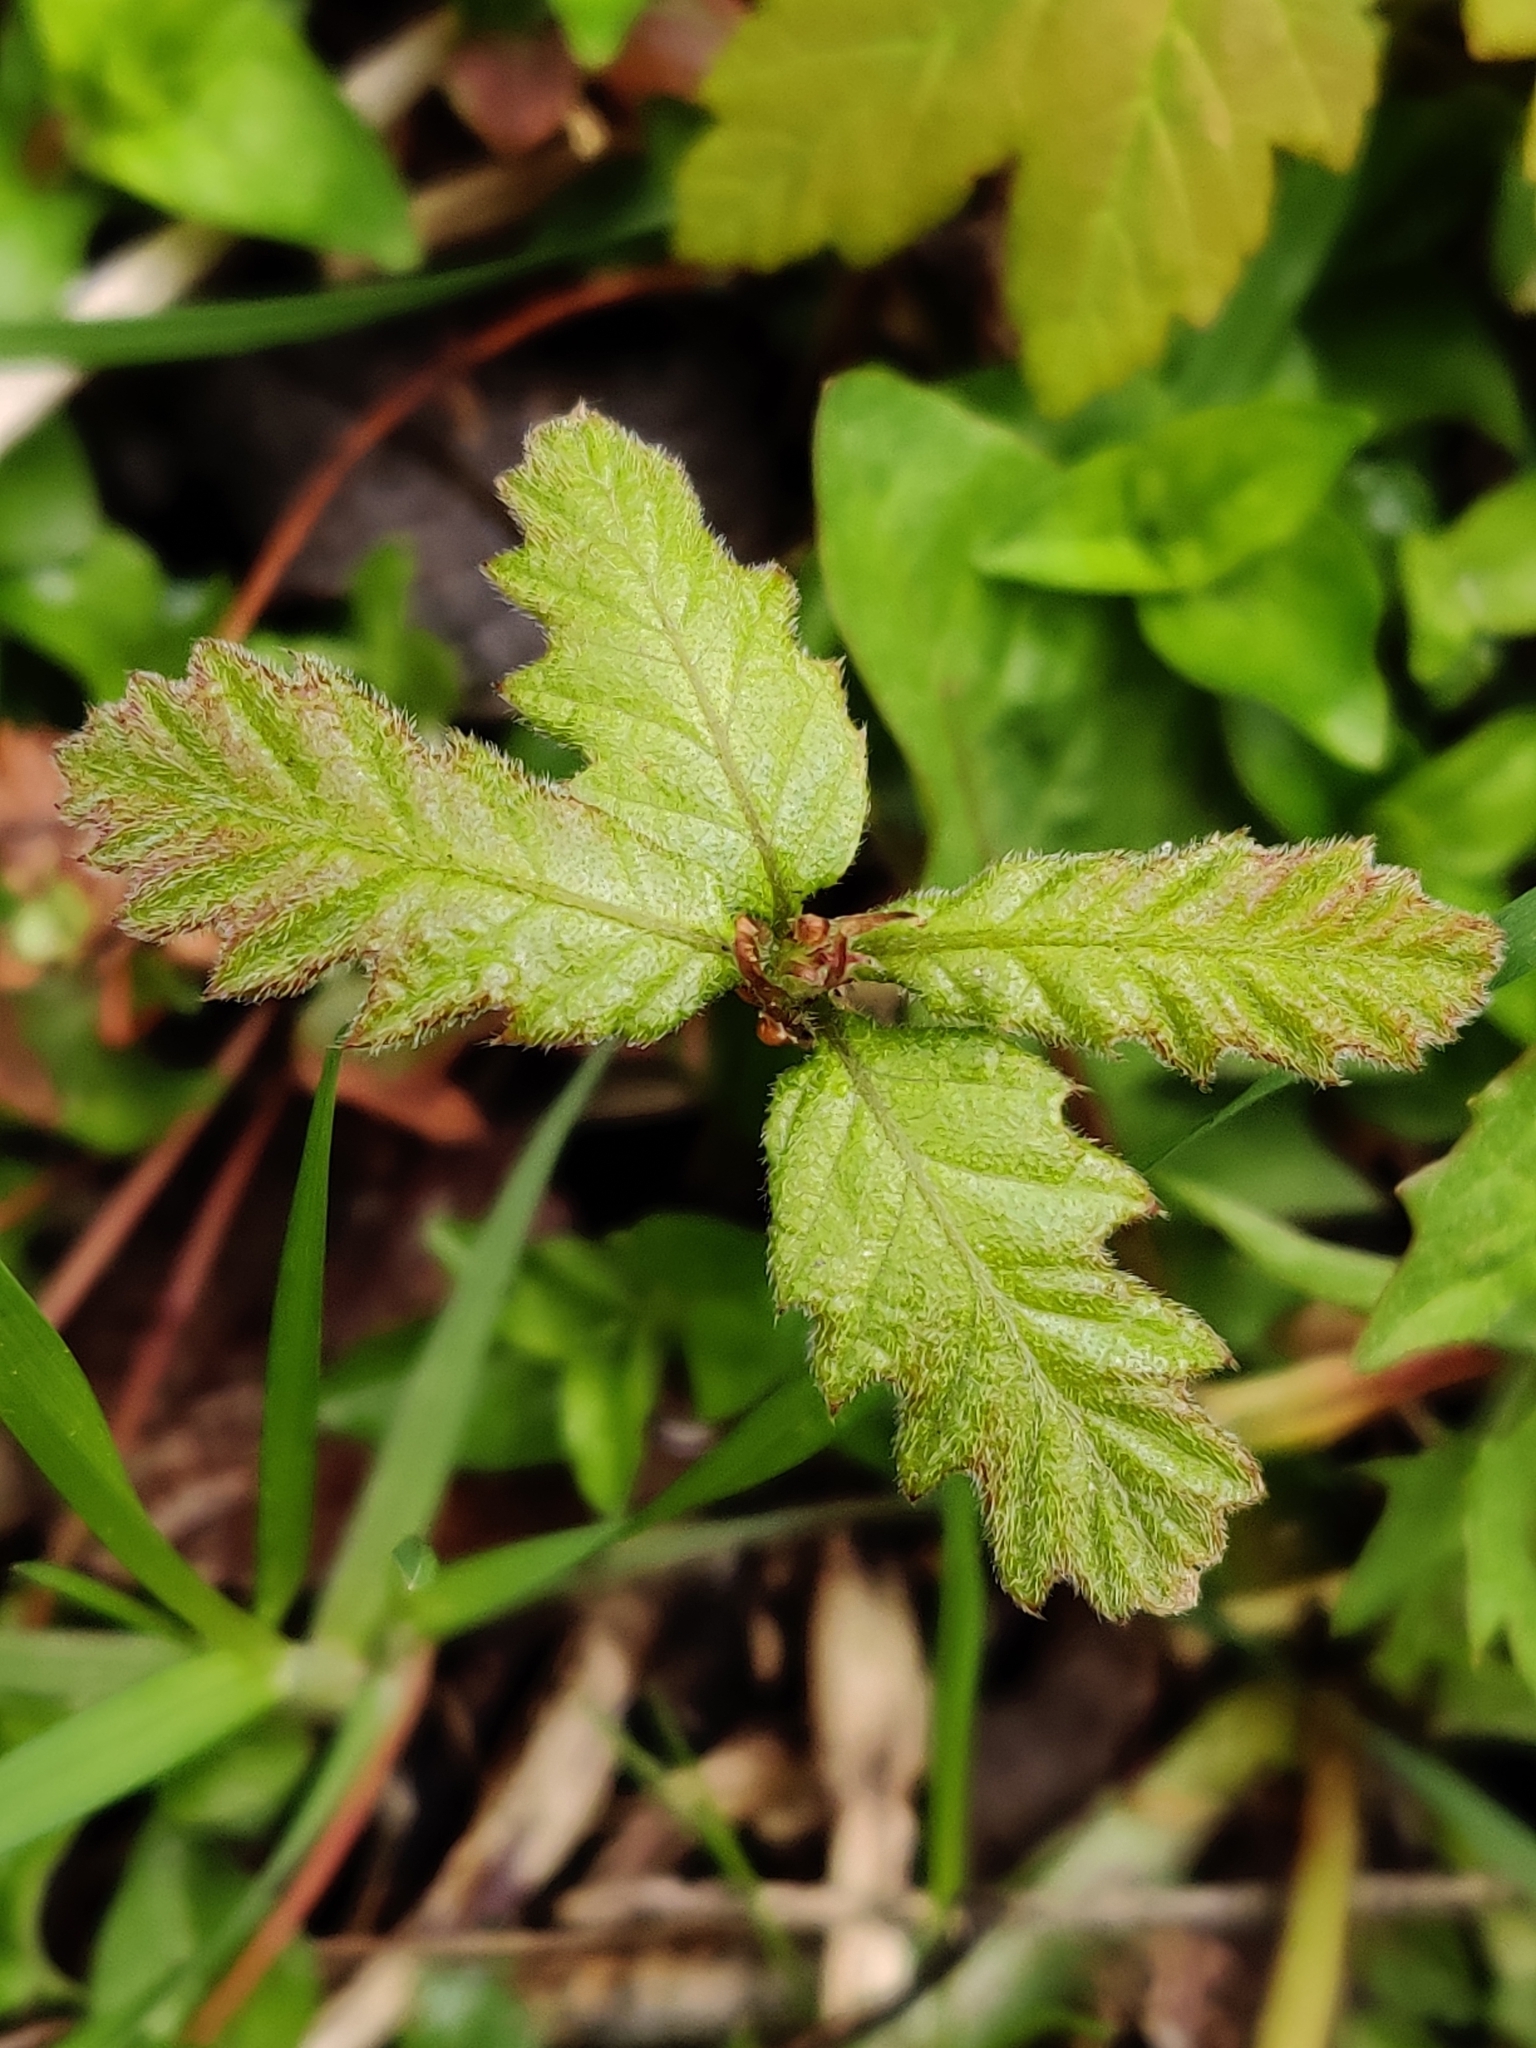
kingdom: Plantae
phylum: Tracheophyta
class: Magnoliopsida
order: Fagales
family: Fagaceae
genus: Quercus
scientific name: Quercus robur
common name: Pedunculate oak
